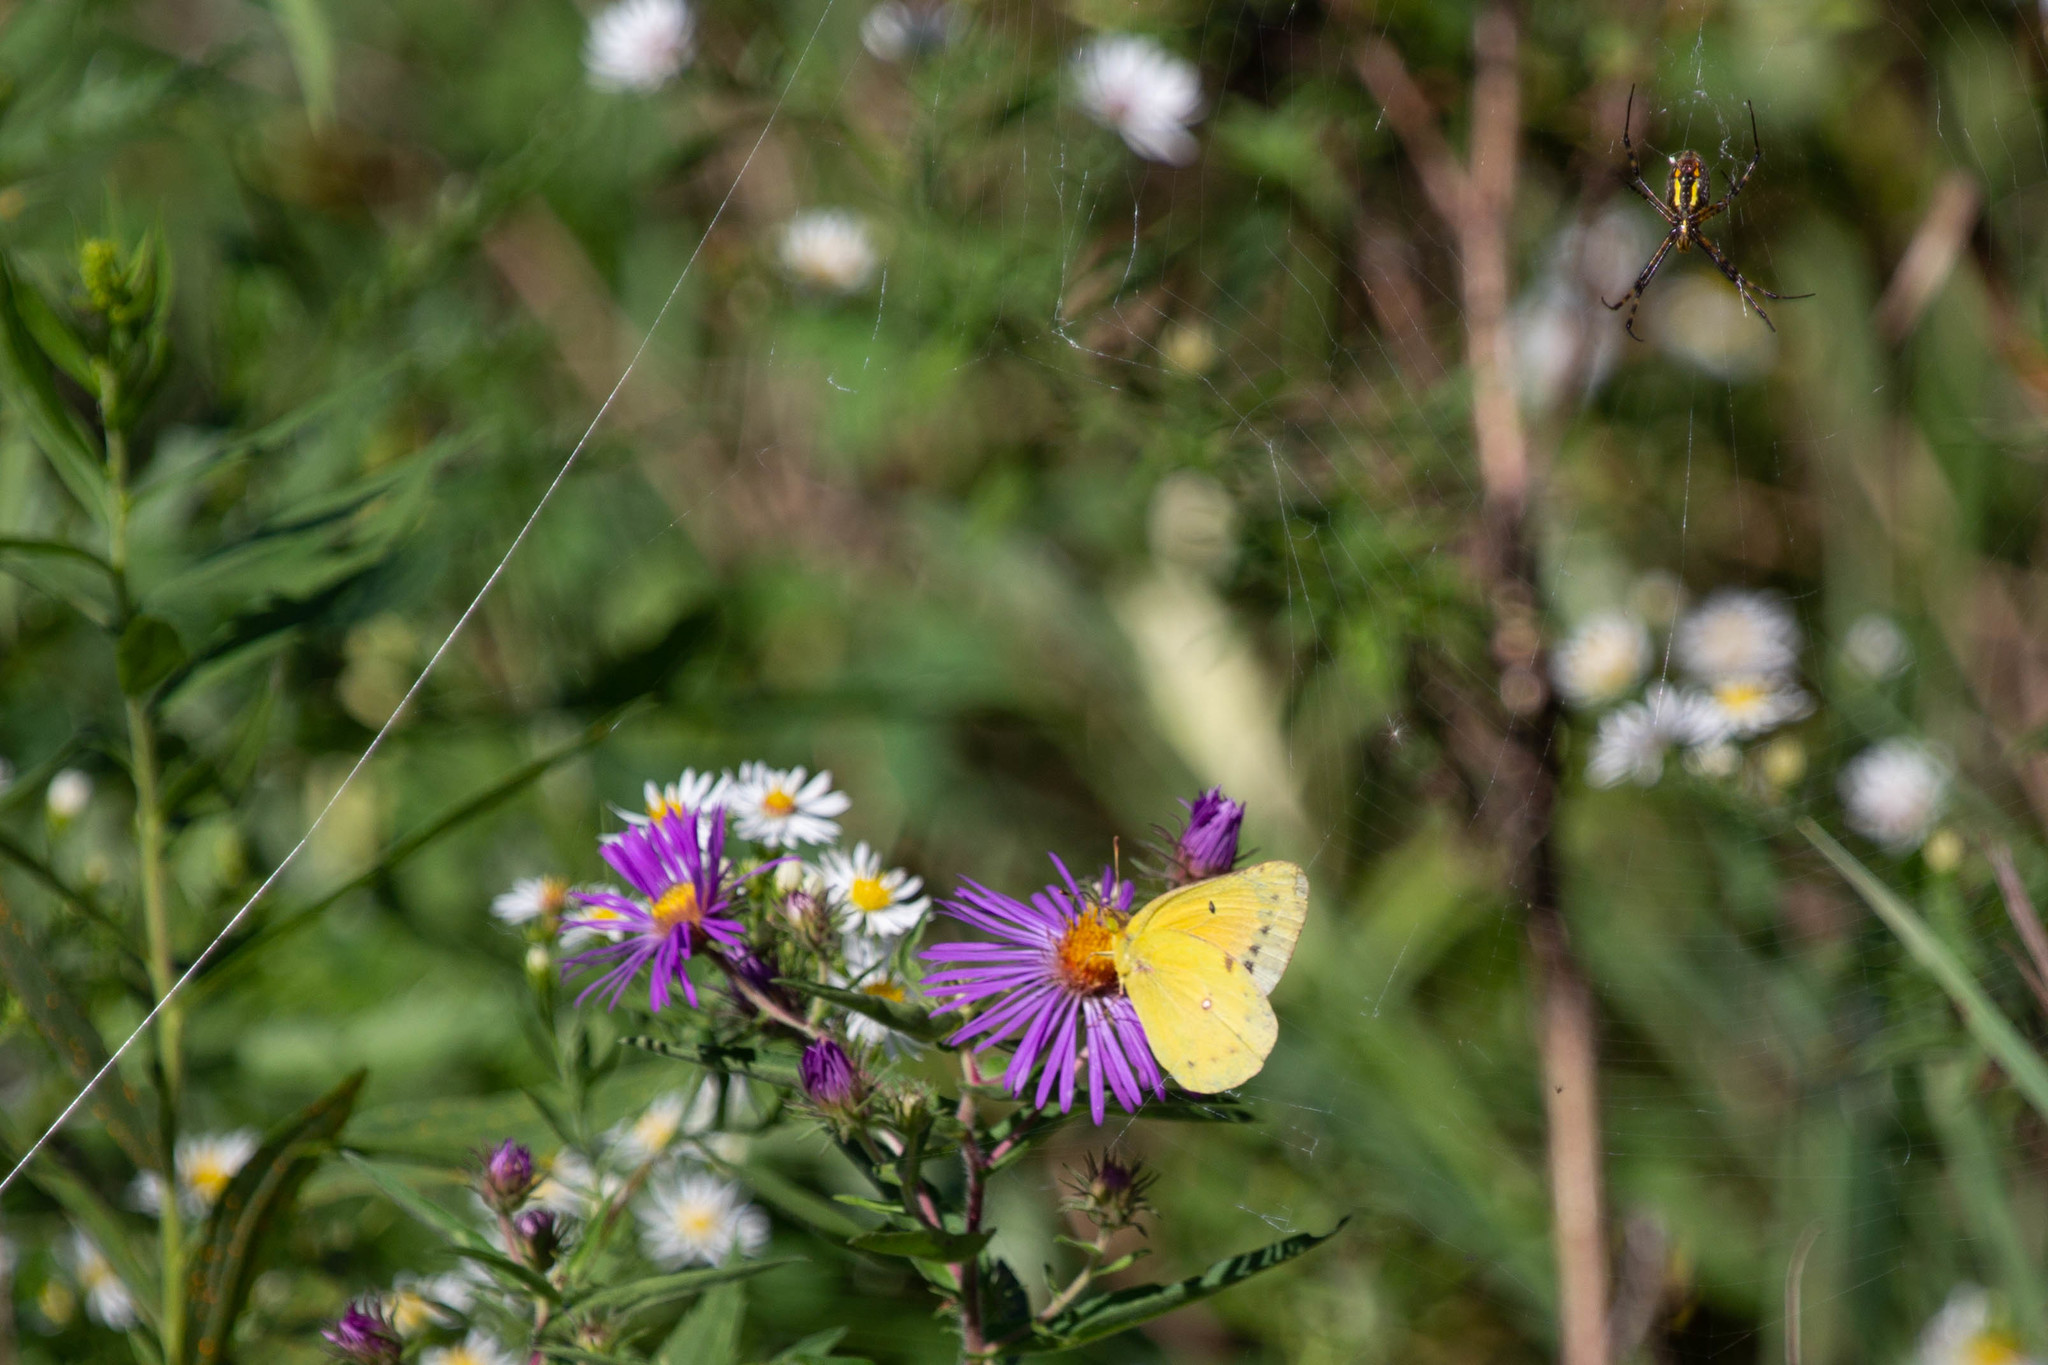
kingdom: Animalia
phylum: Arthropoda
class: Insecta
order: Lepidoptera
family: Pieridae
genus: Colias
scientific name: Colias eurytheme
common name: Alfalfa butterfly
